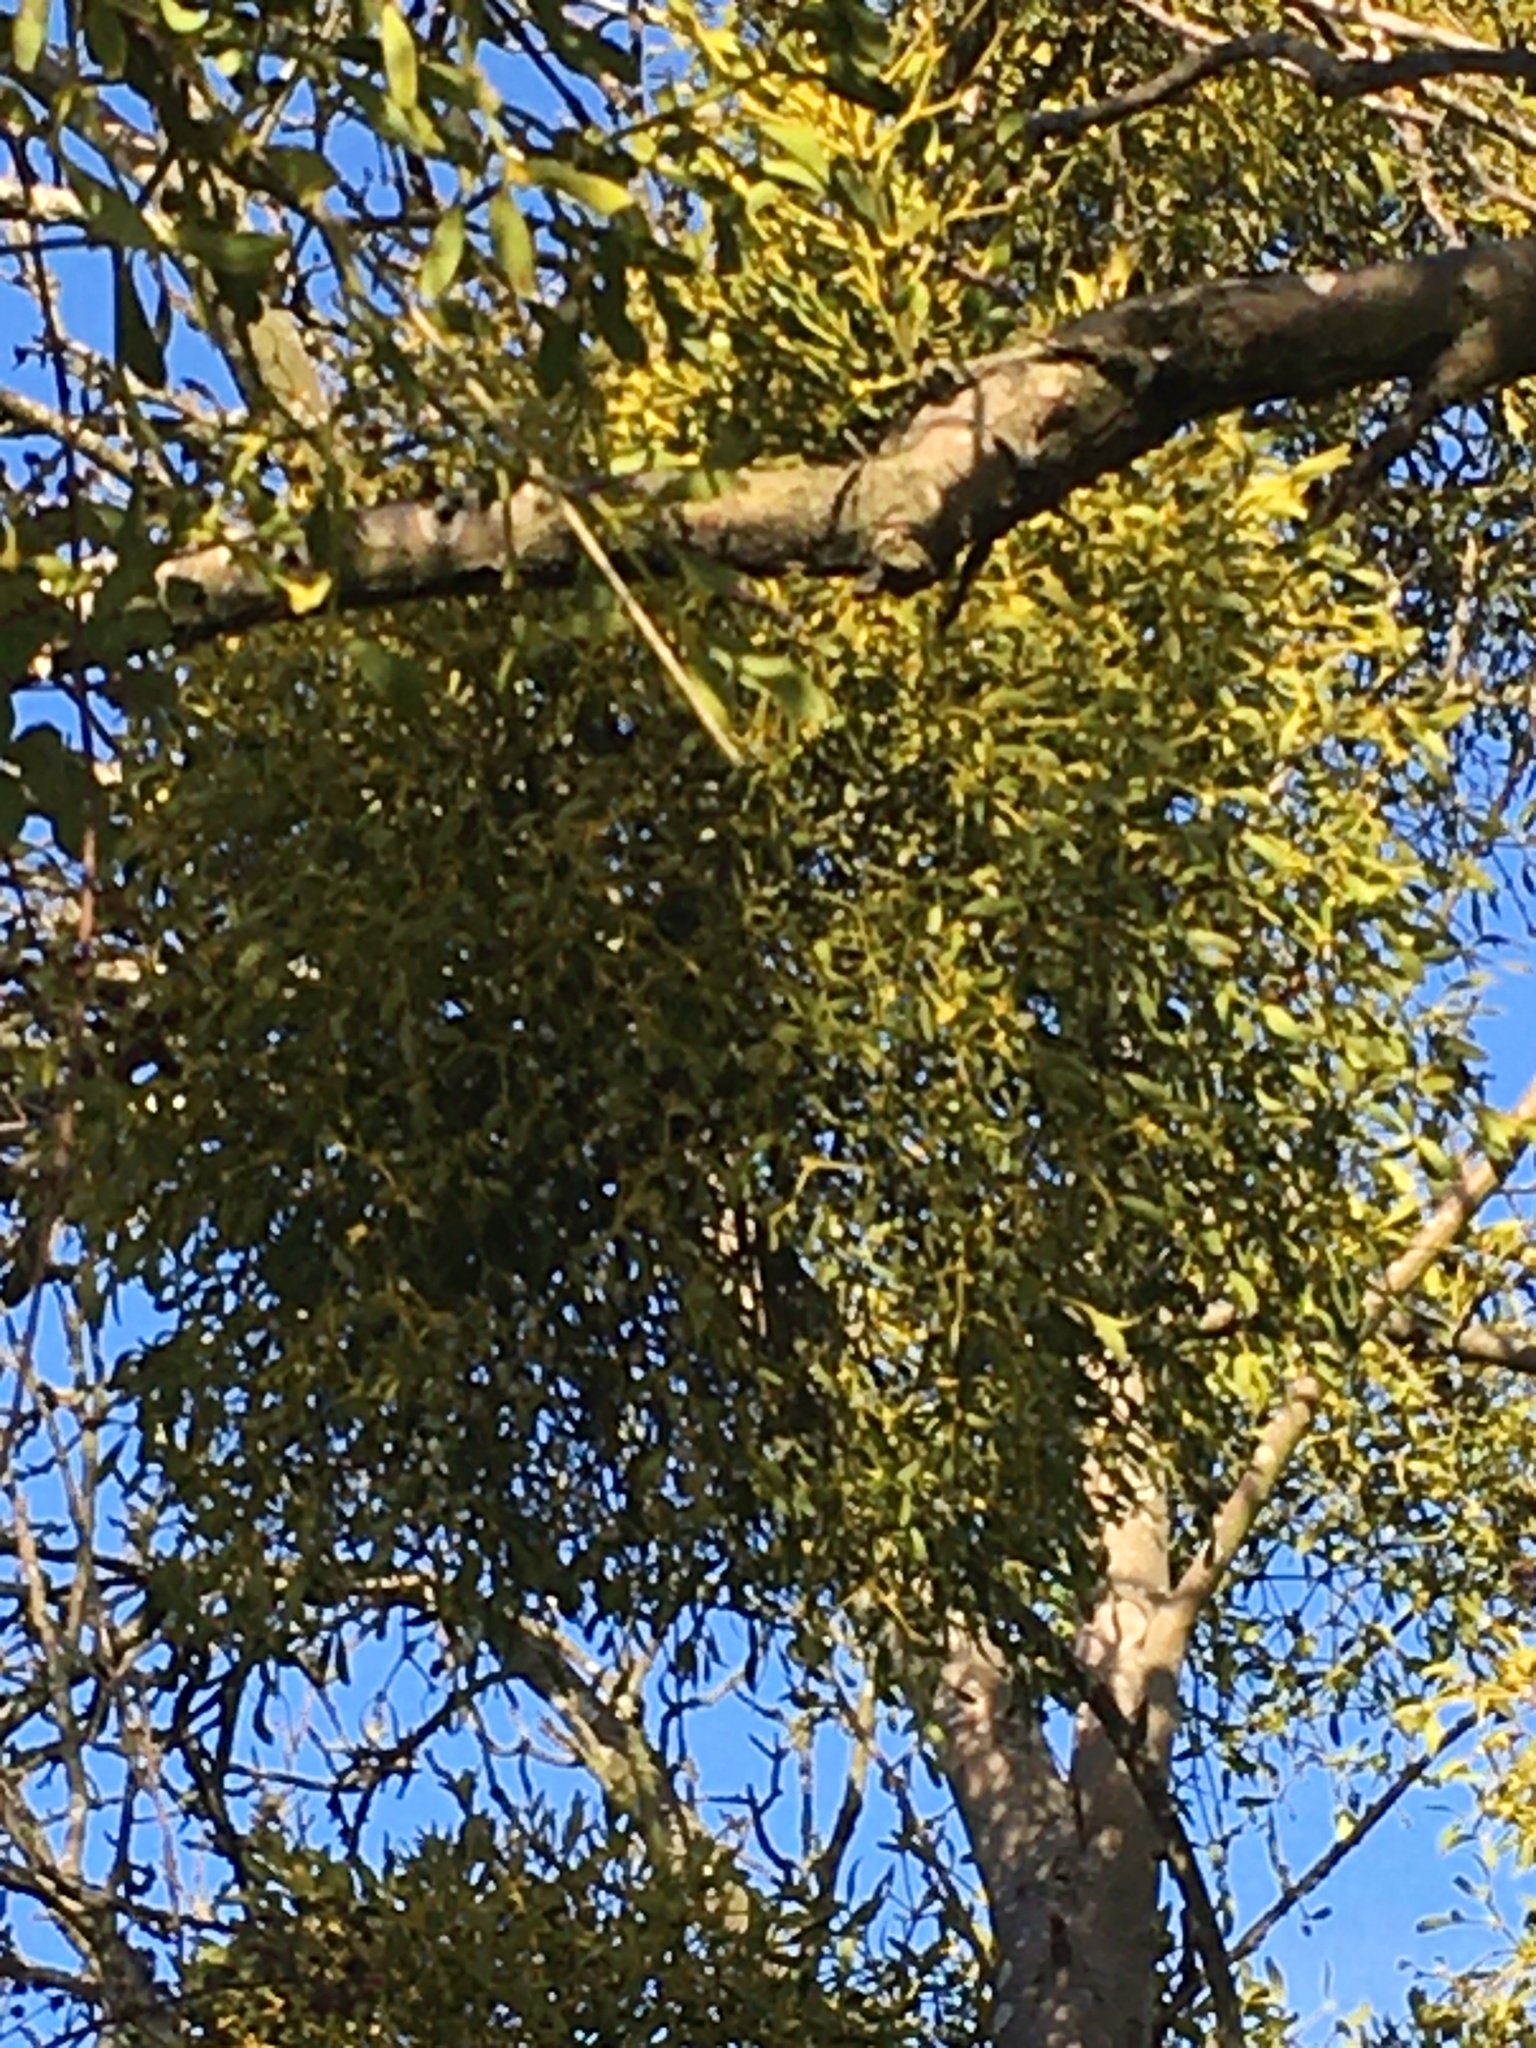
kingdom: Plantae
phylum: Tracheophyta
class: Magnoliopsida
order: Santalales
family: Viscaceae
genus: Viscum
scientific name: Viscum album
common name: Mistletoe
